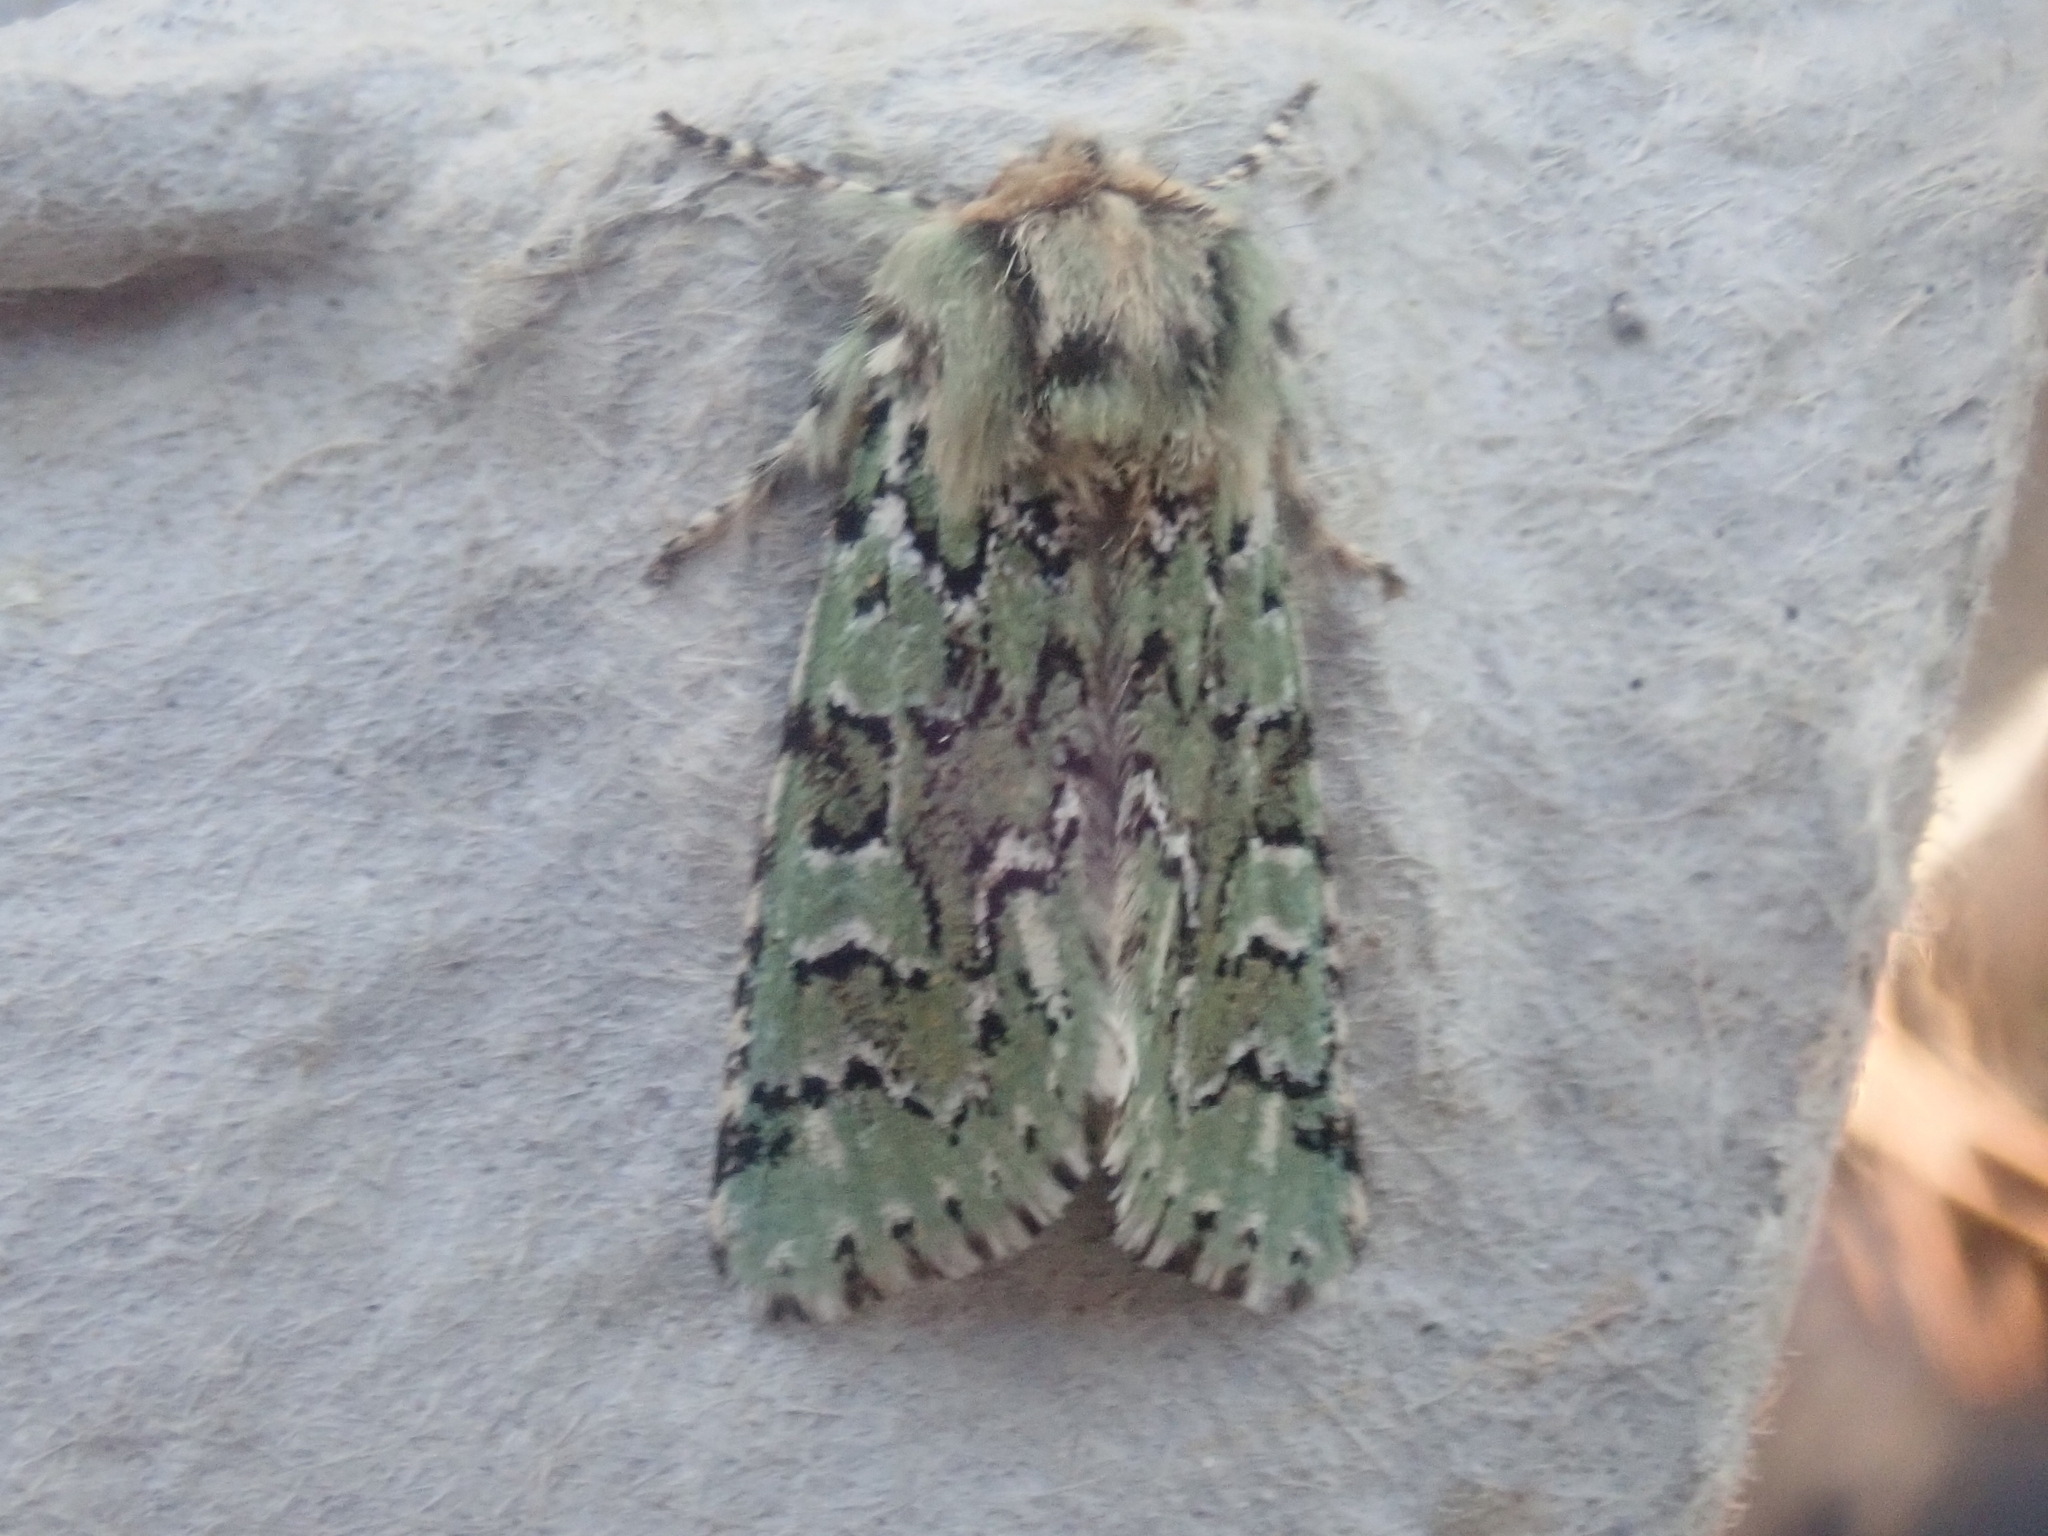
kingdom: Animalia
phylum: Arthropoda
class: Insecta
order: Lepidoptera
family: Noctuidae
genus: Feralia
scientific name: Feralia jocosa
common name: Joker
